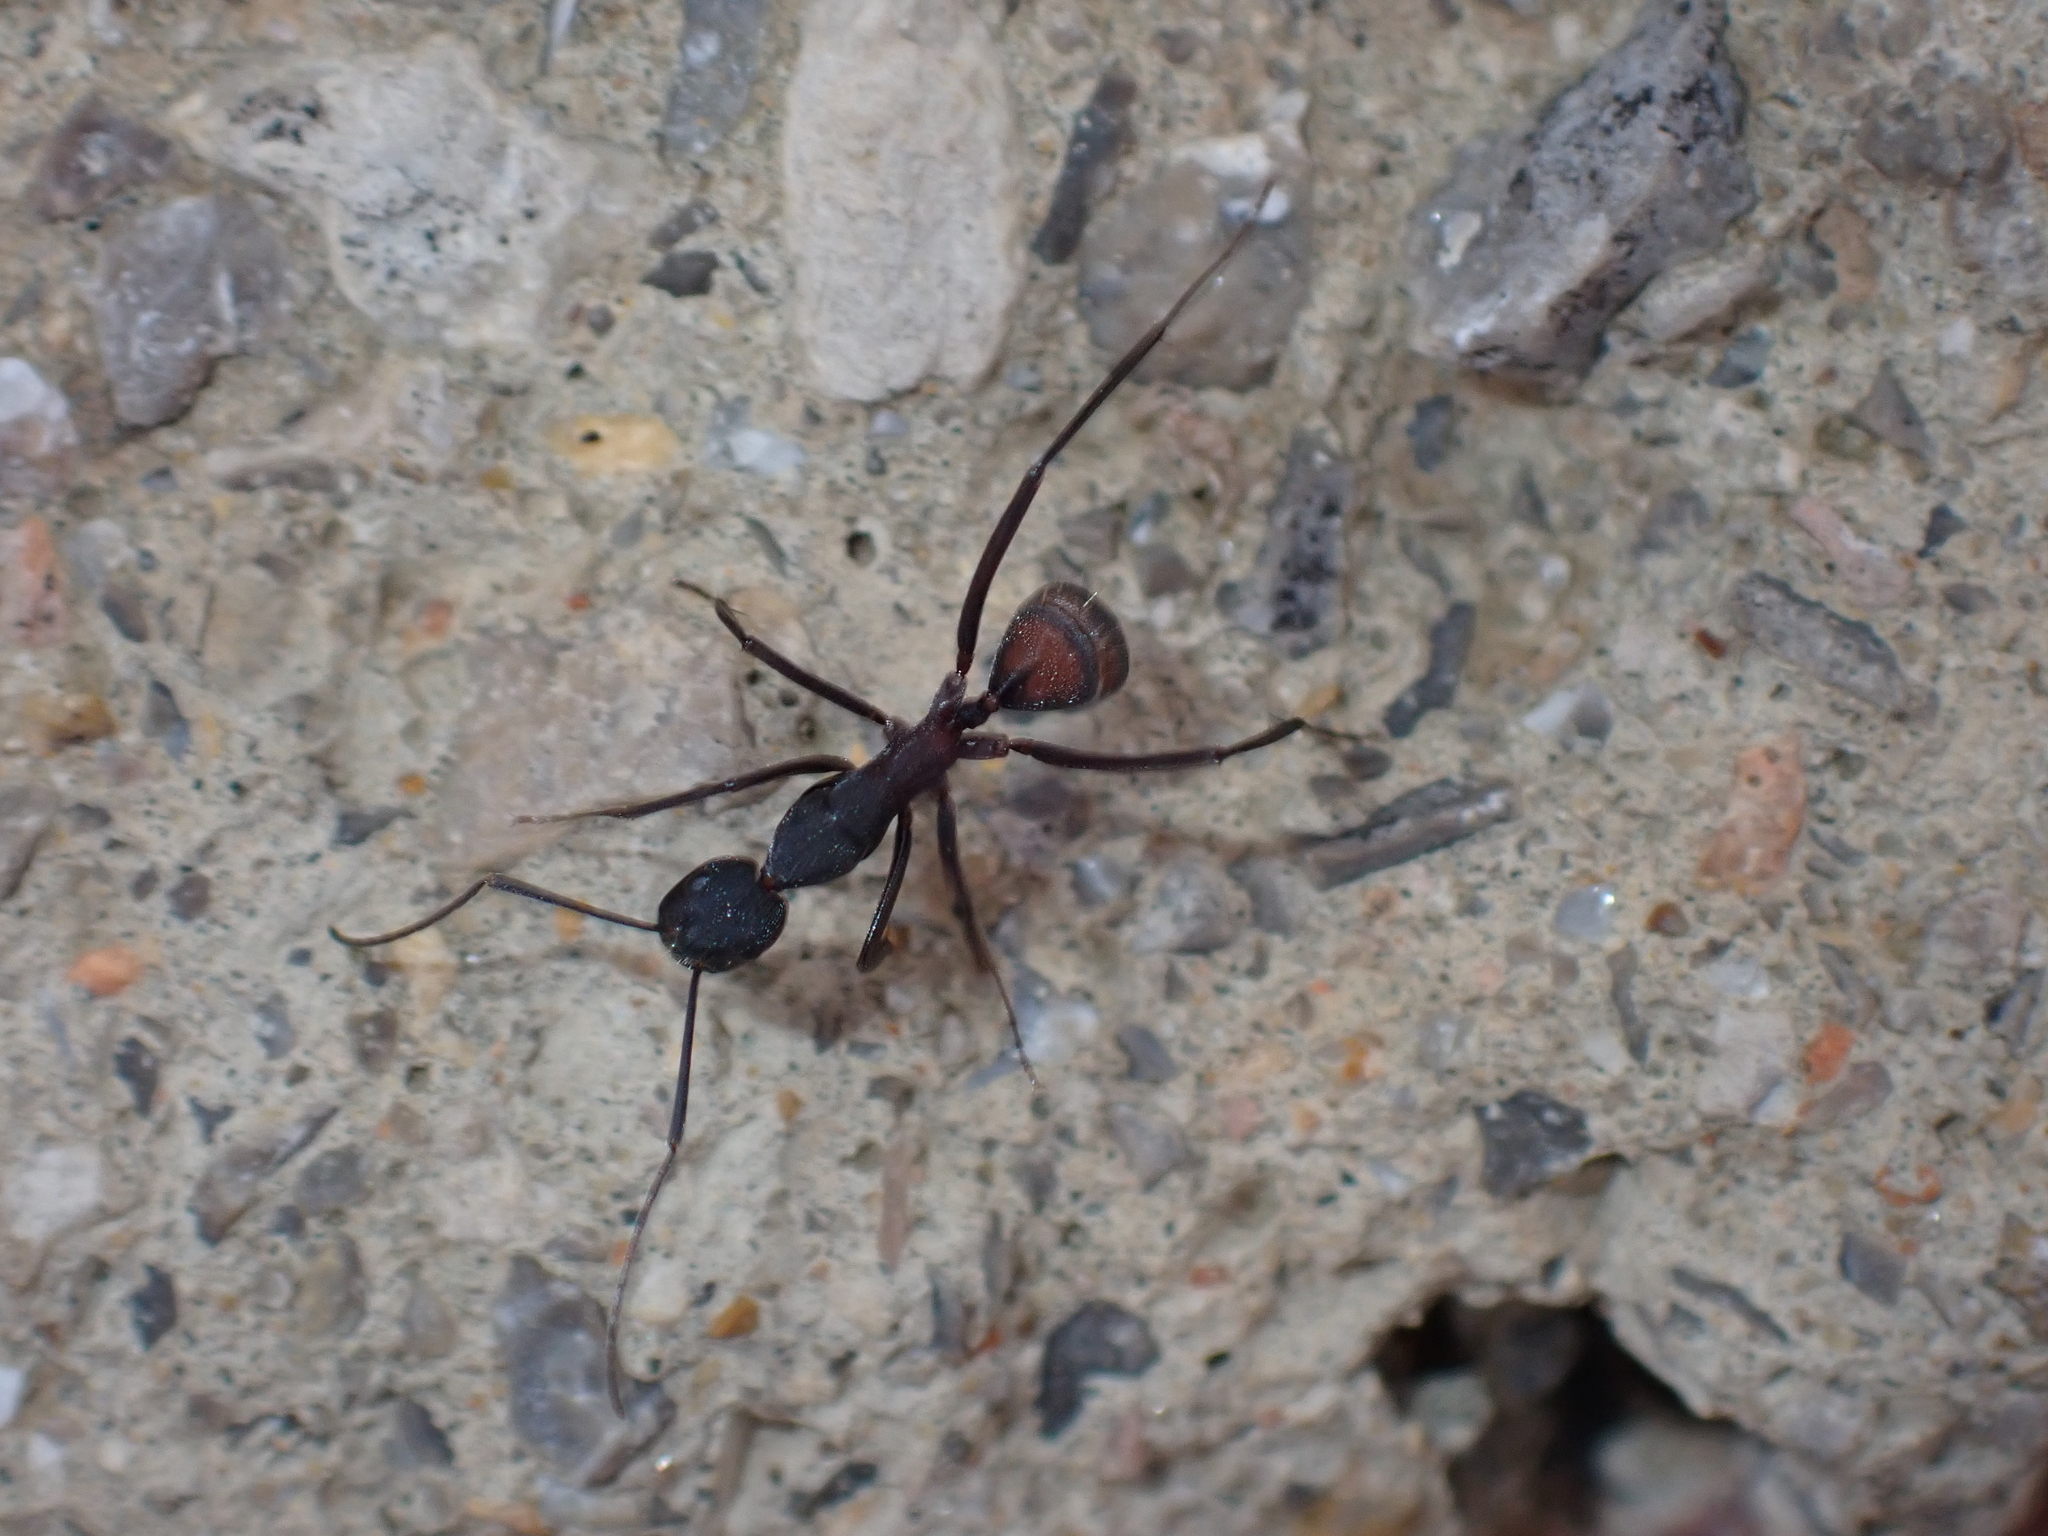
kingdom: Animalia
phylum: Arthropoda
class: Insecta
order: Hymenoptera
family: Formicidae
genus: Camponotus
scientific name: Camponotus cruentatus
